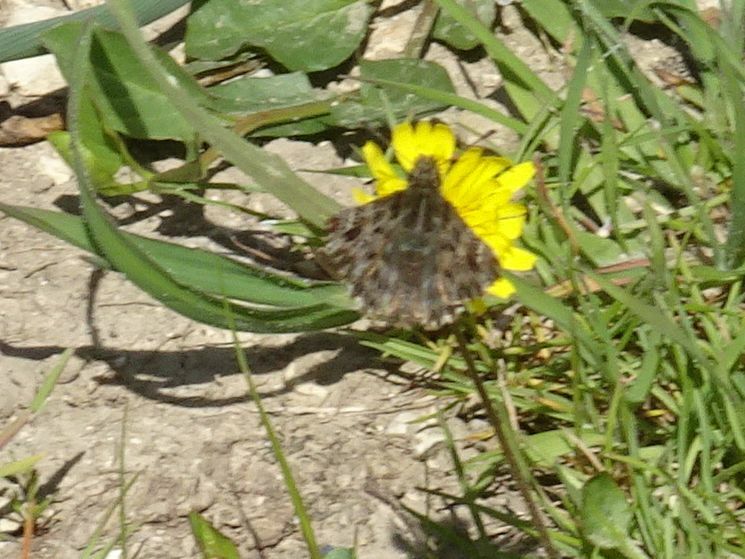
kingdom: Animalia
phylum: Arthropoda
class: Insecta
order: Lepidoptera
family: Hesperiidae
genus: Carcharodus
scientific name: Carcharodus alceae
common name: Mallow skipper
